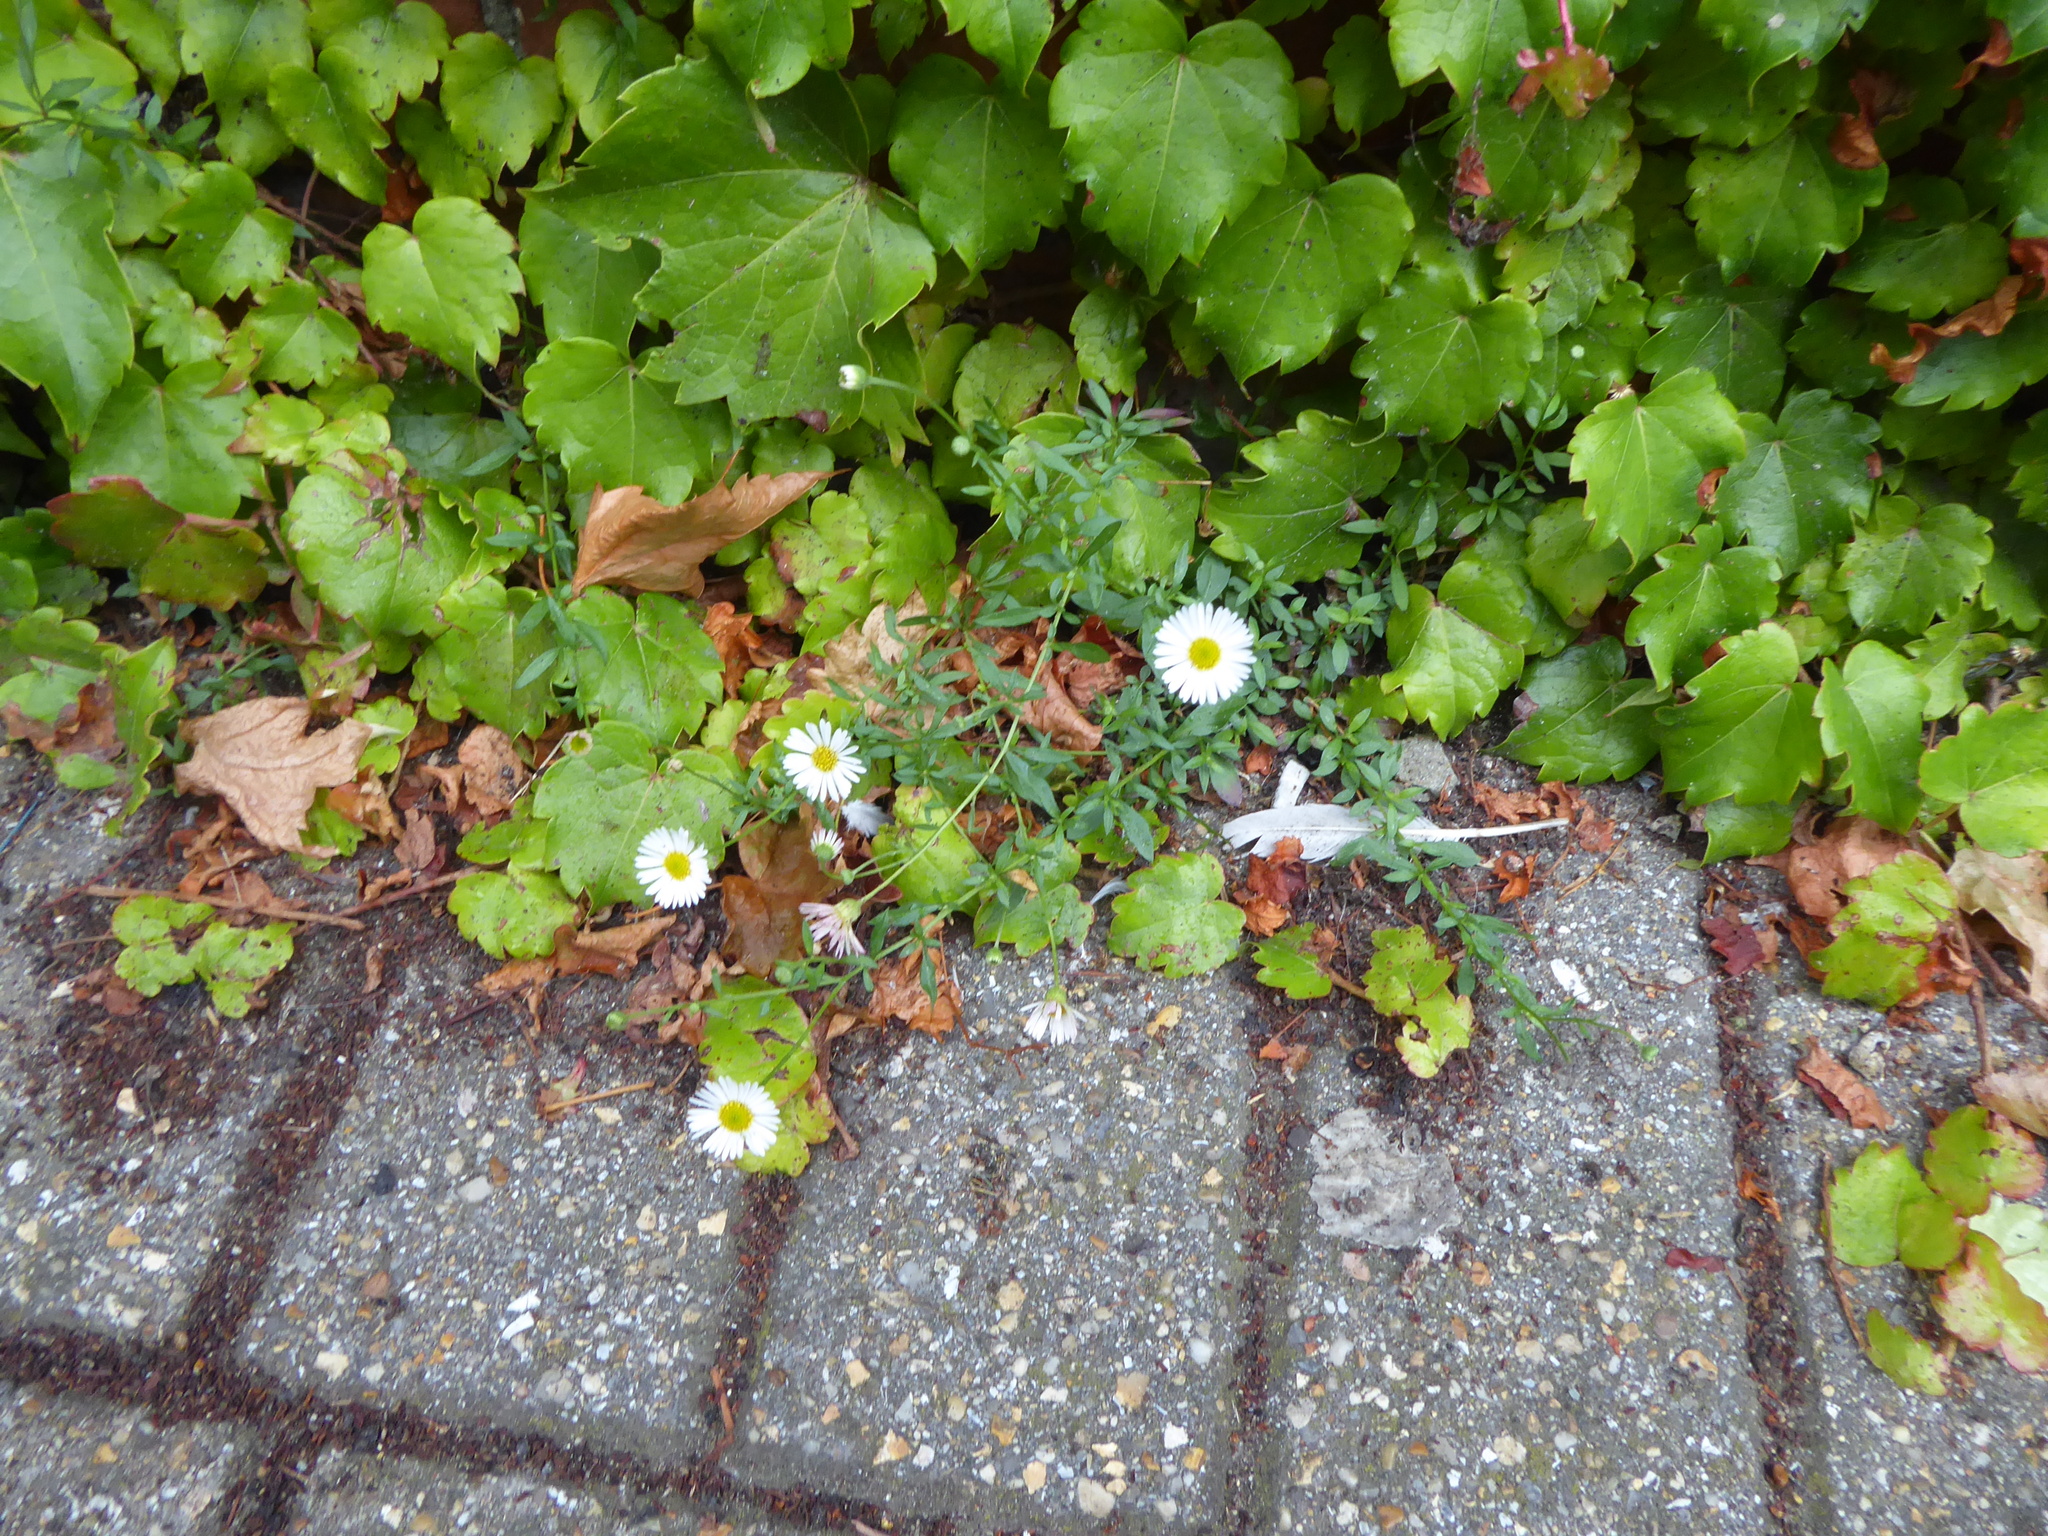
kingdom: Plantae
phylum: Tracheophyta
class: Magnoliopsida
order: Asterales
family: Asteraceae
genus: Erigeron
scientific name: Erigeron karvinskianus
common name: Mexican fleabane
